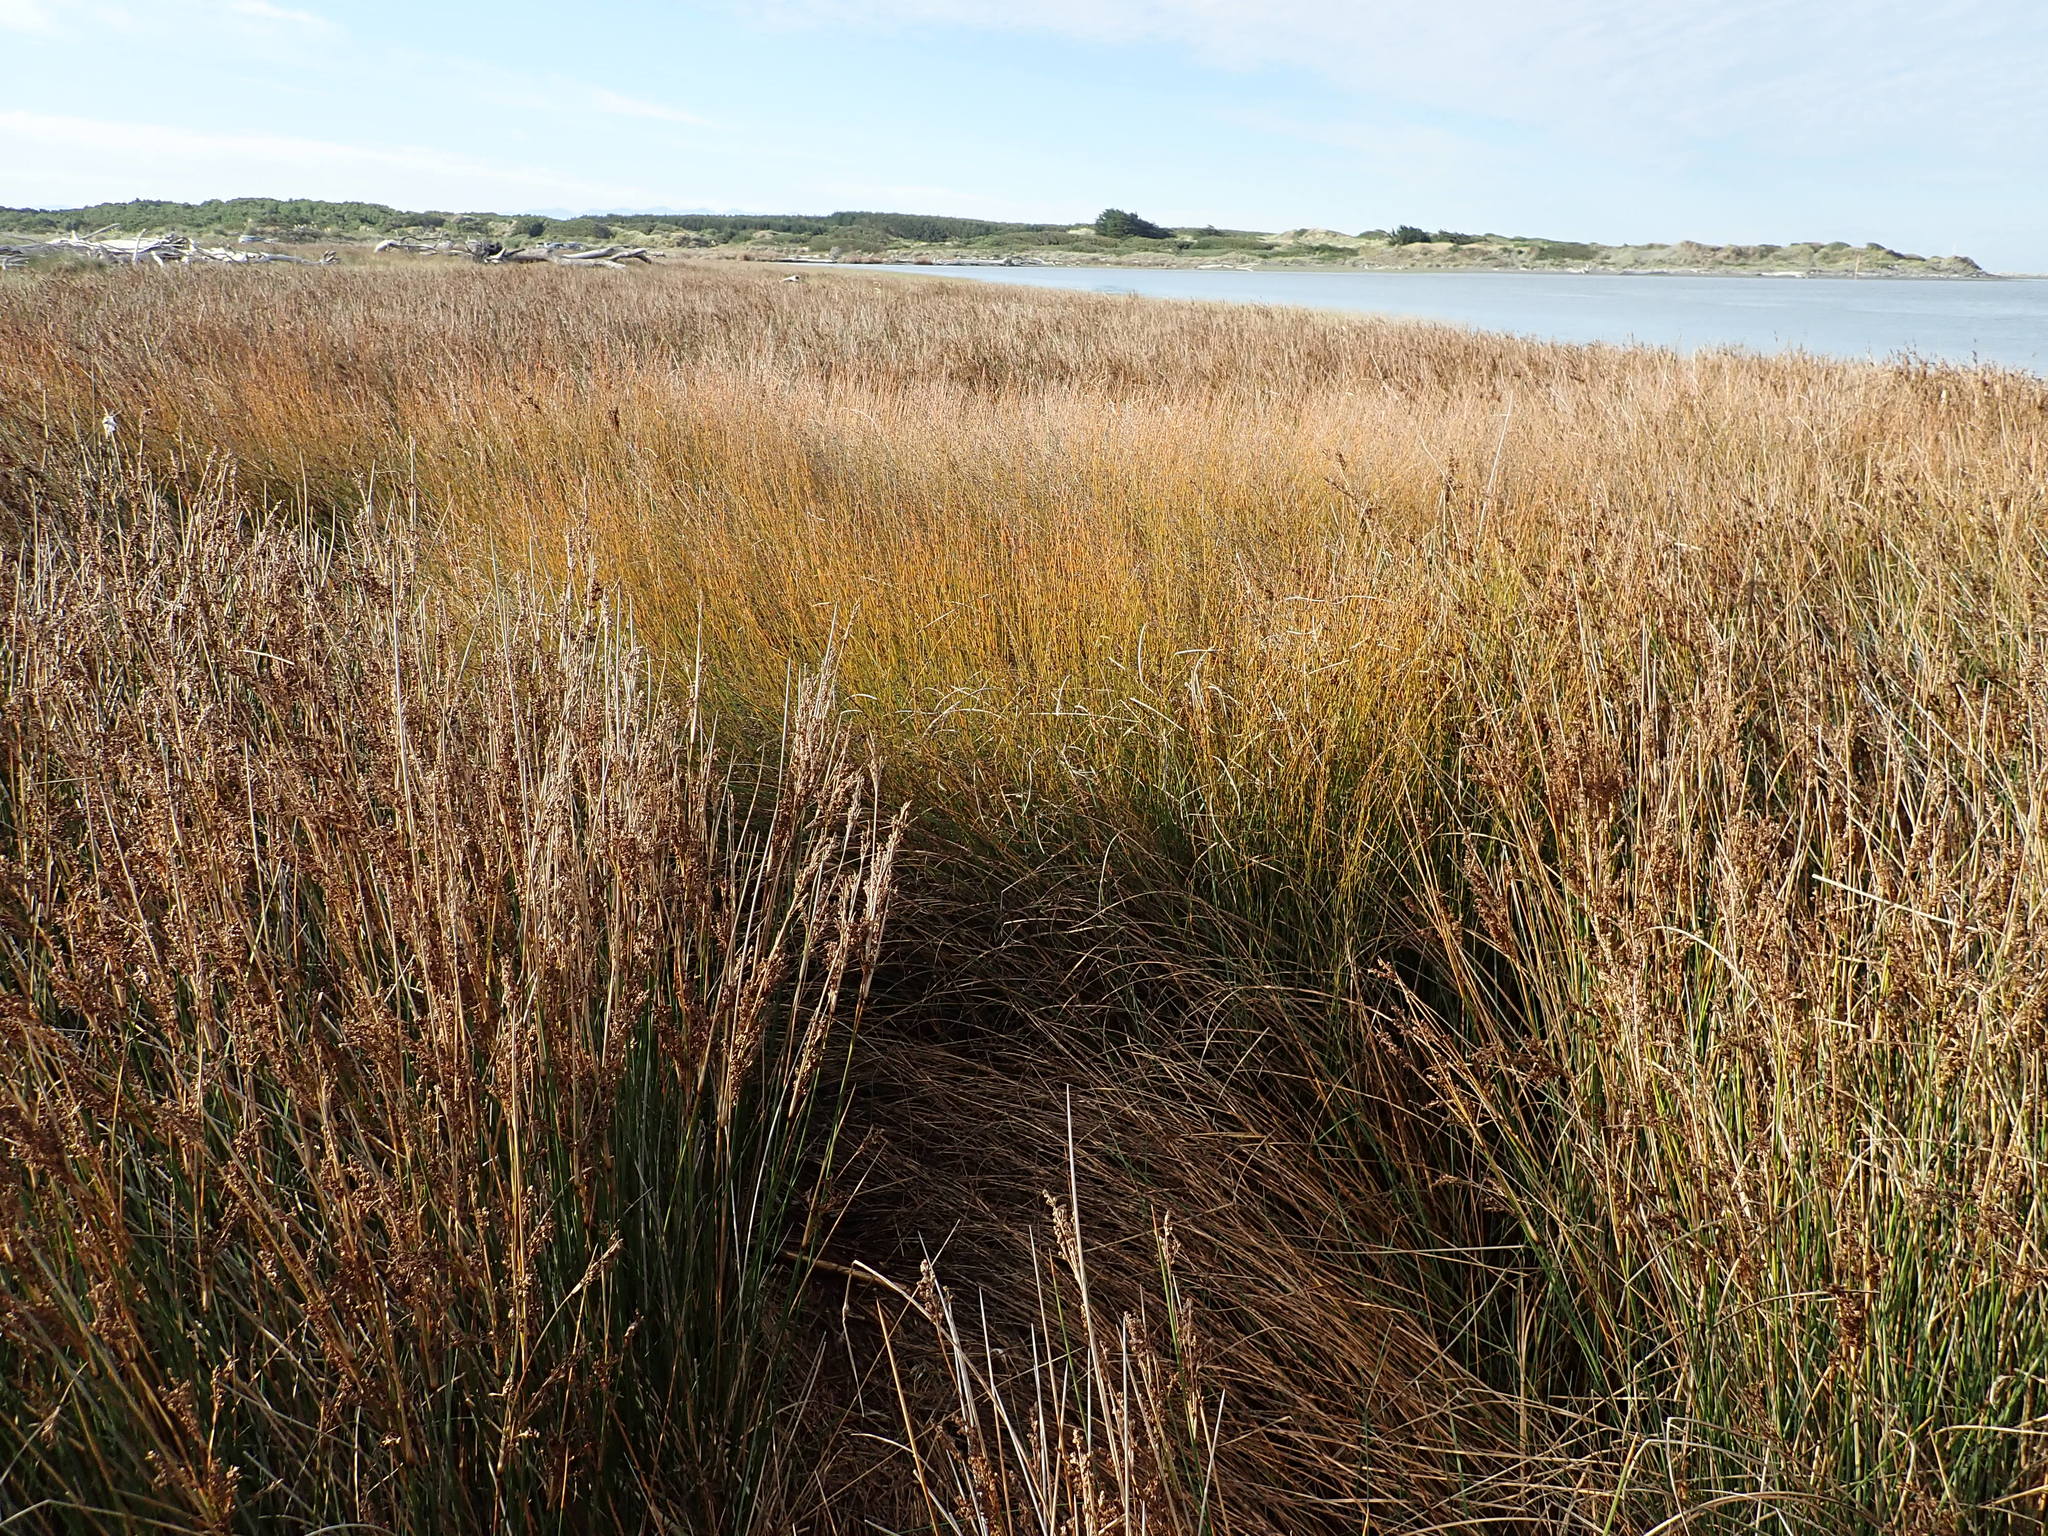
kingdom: Plantae
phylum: Tracheophyta
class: Liliopsida
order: Poales
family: Restionaceae
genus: Apodasmia
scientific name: Apodasmia similis
